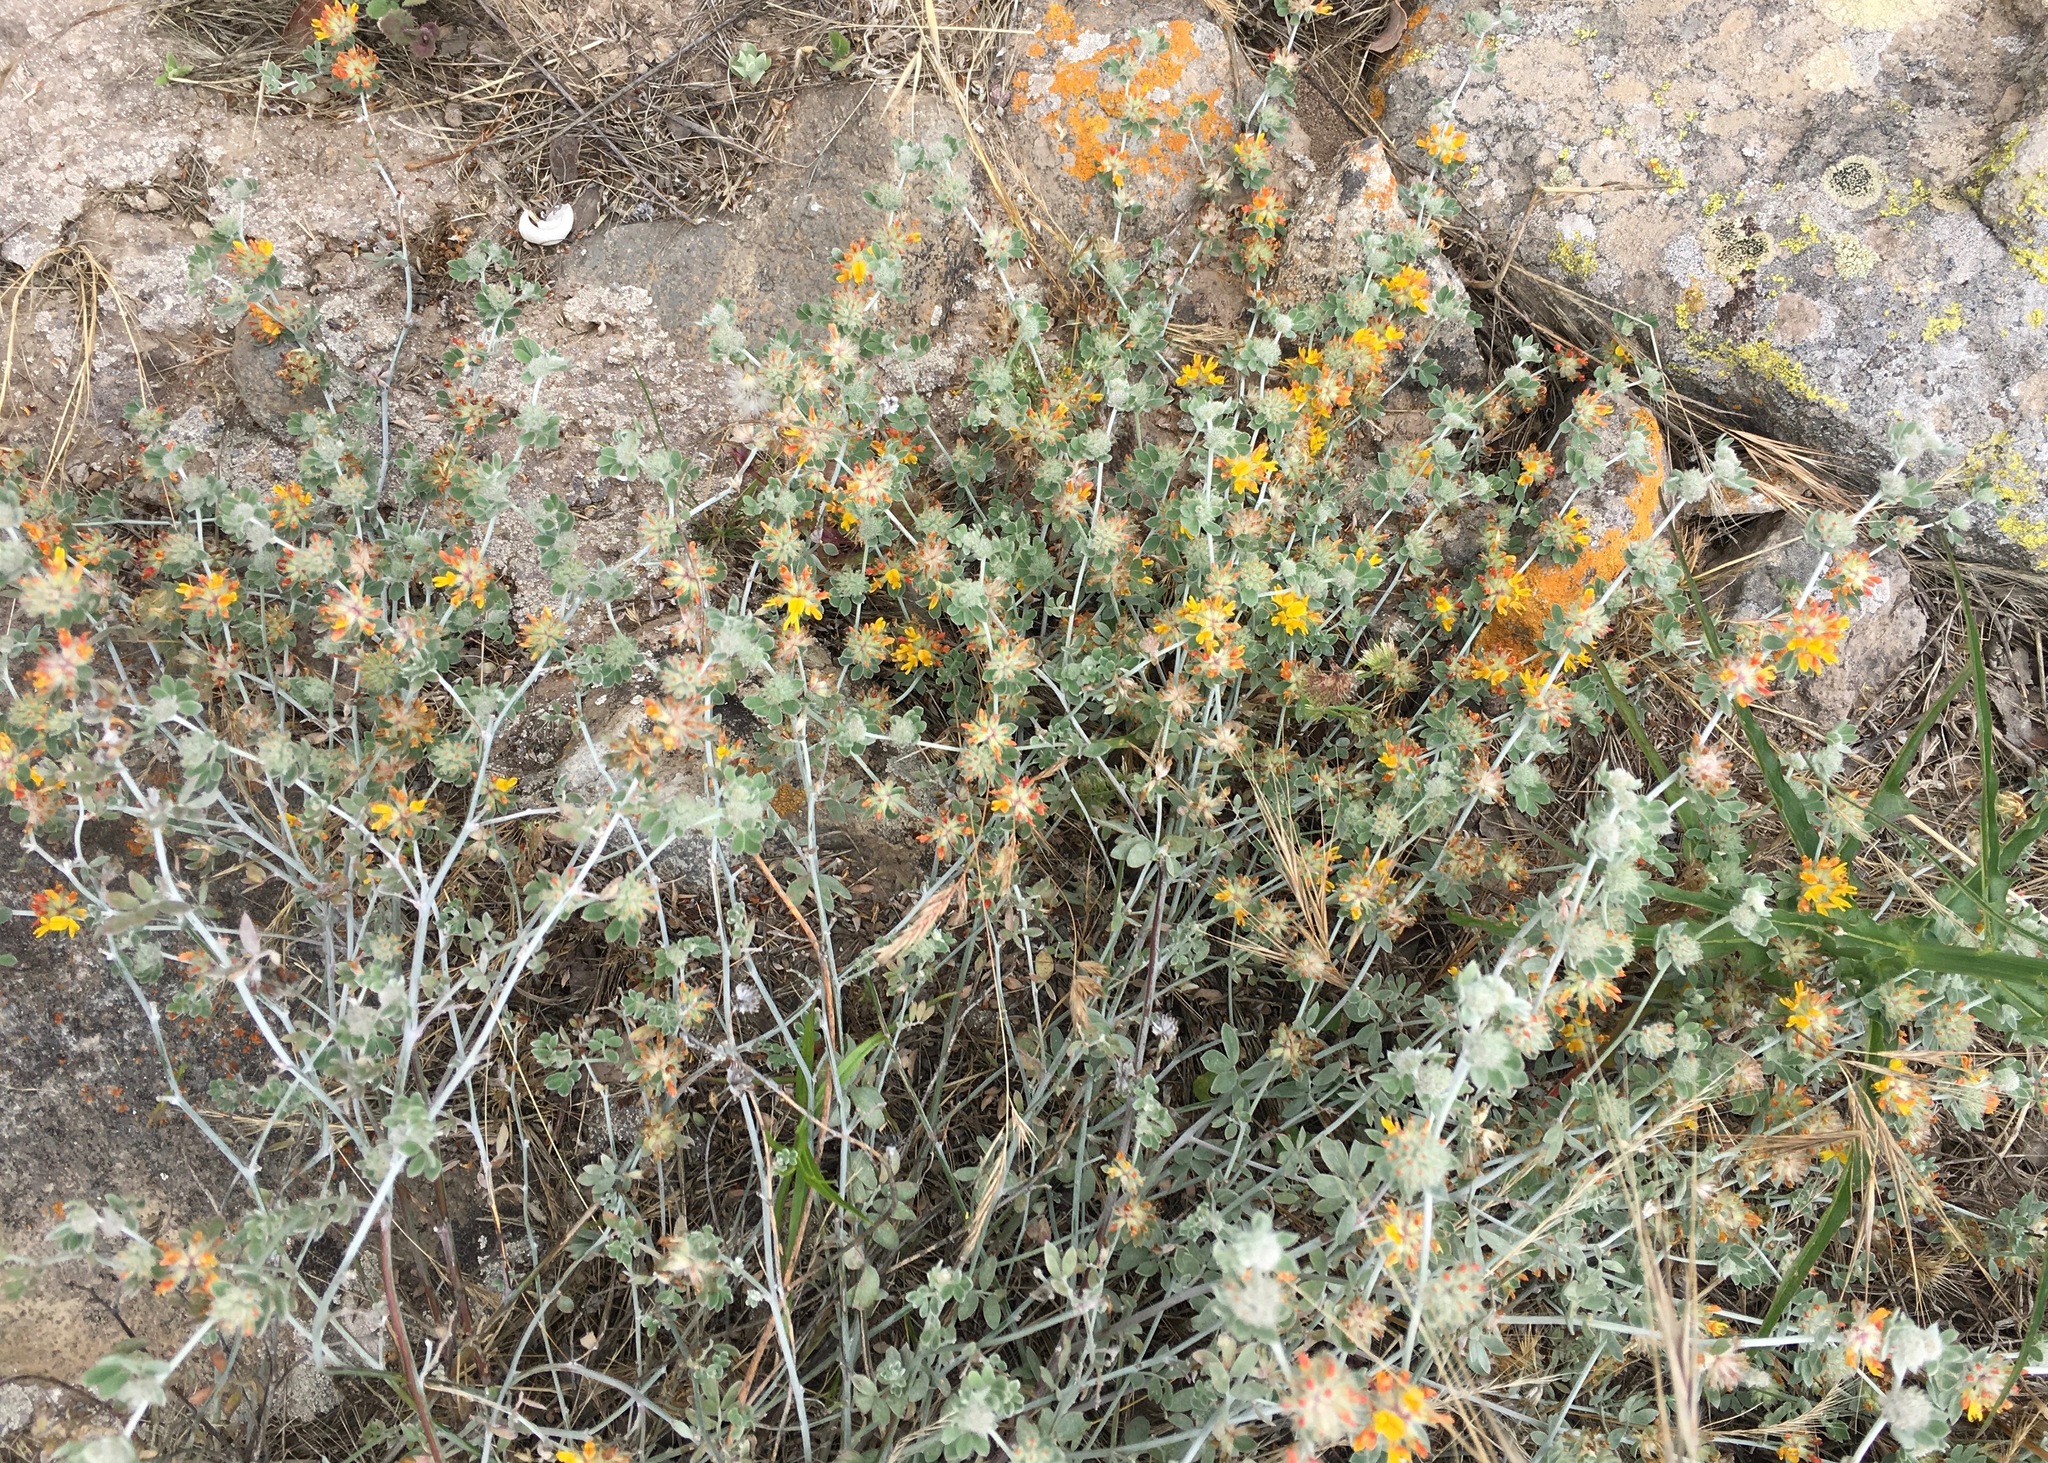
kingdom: Plantae
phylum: Tracheophyta
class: Magnoliopsida
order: Fabales
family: Fabaceae
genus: Acmispon
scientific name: Acmispon argophyllus
